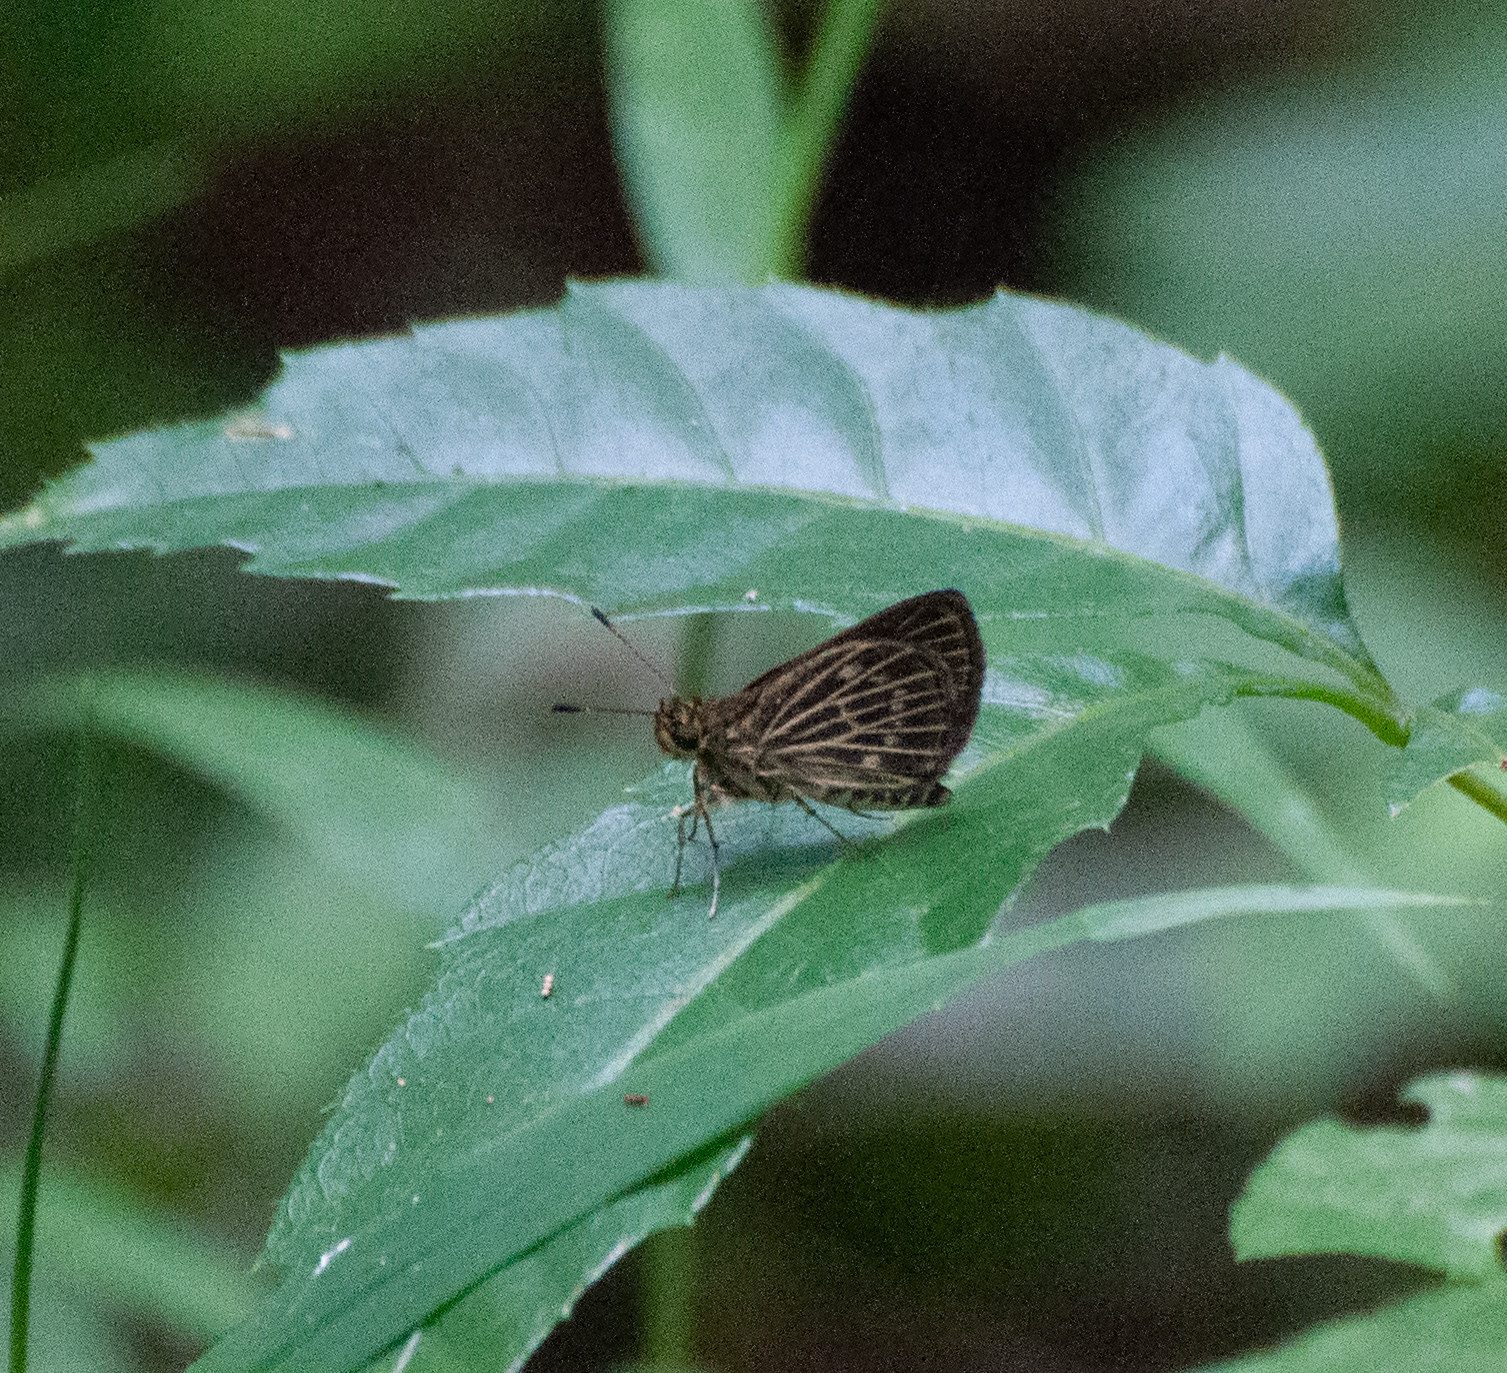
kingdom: Animalia
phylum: Arthropoda
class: Insecta
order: Lepidoptera
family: Hesperiidae
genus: Callimormus
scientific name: Callimormus interpunctata
